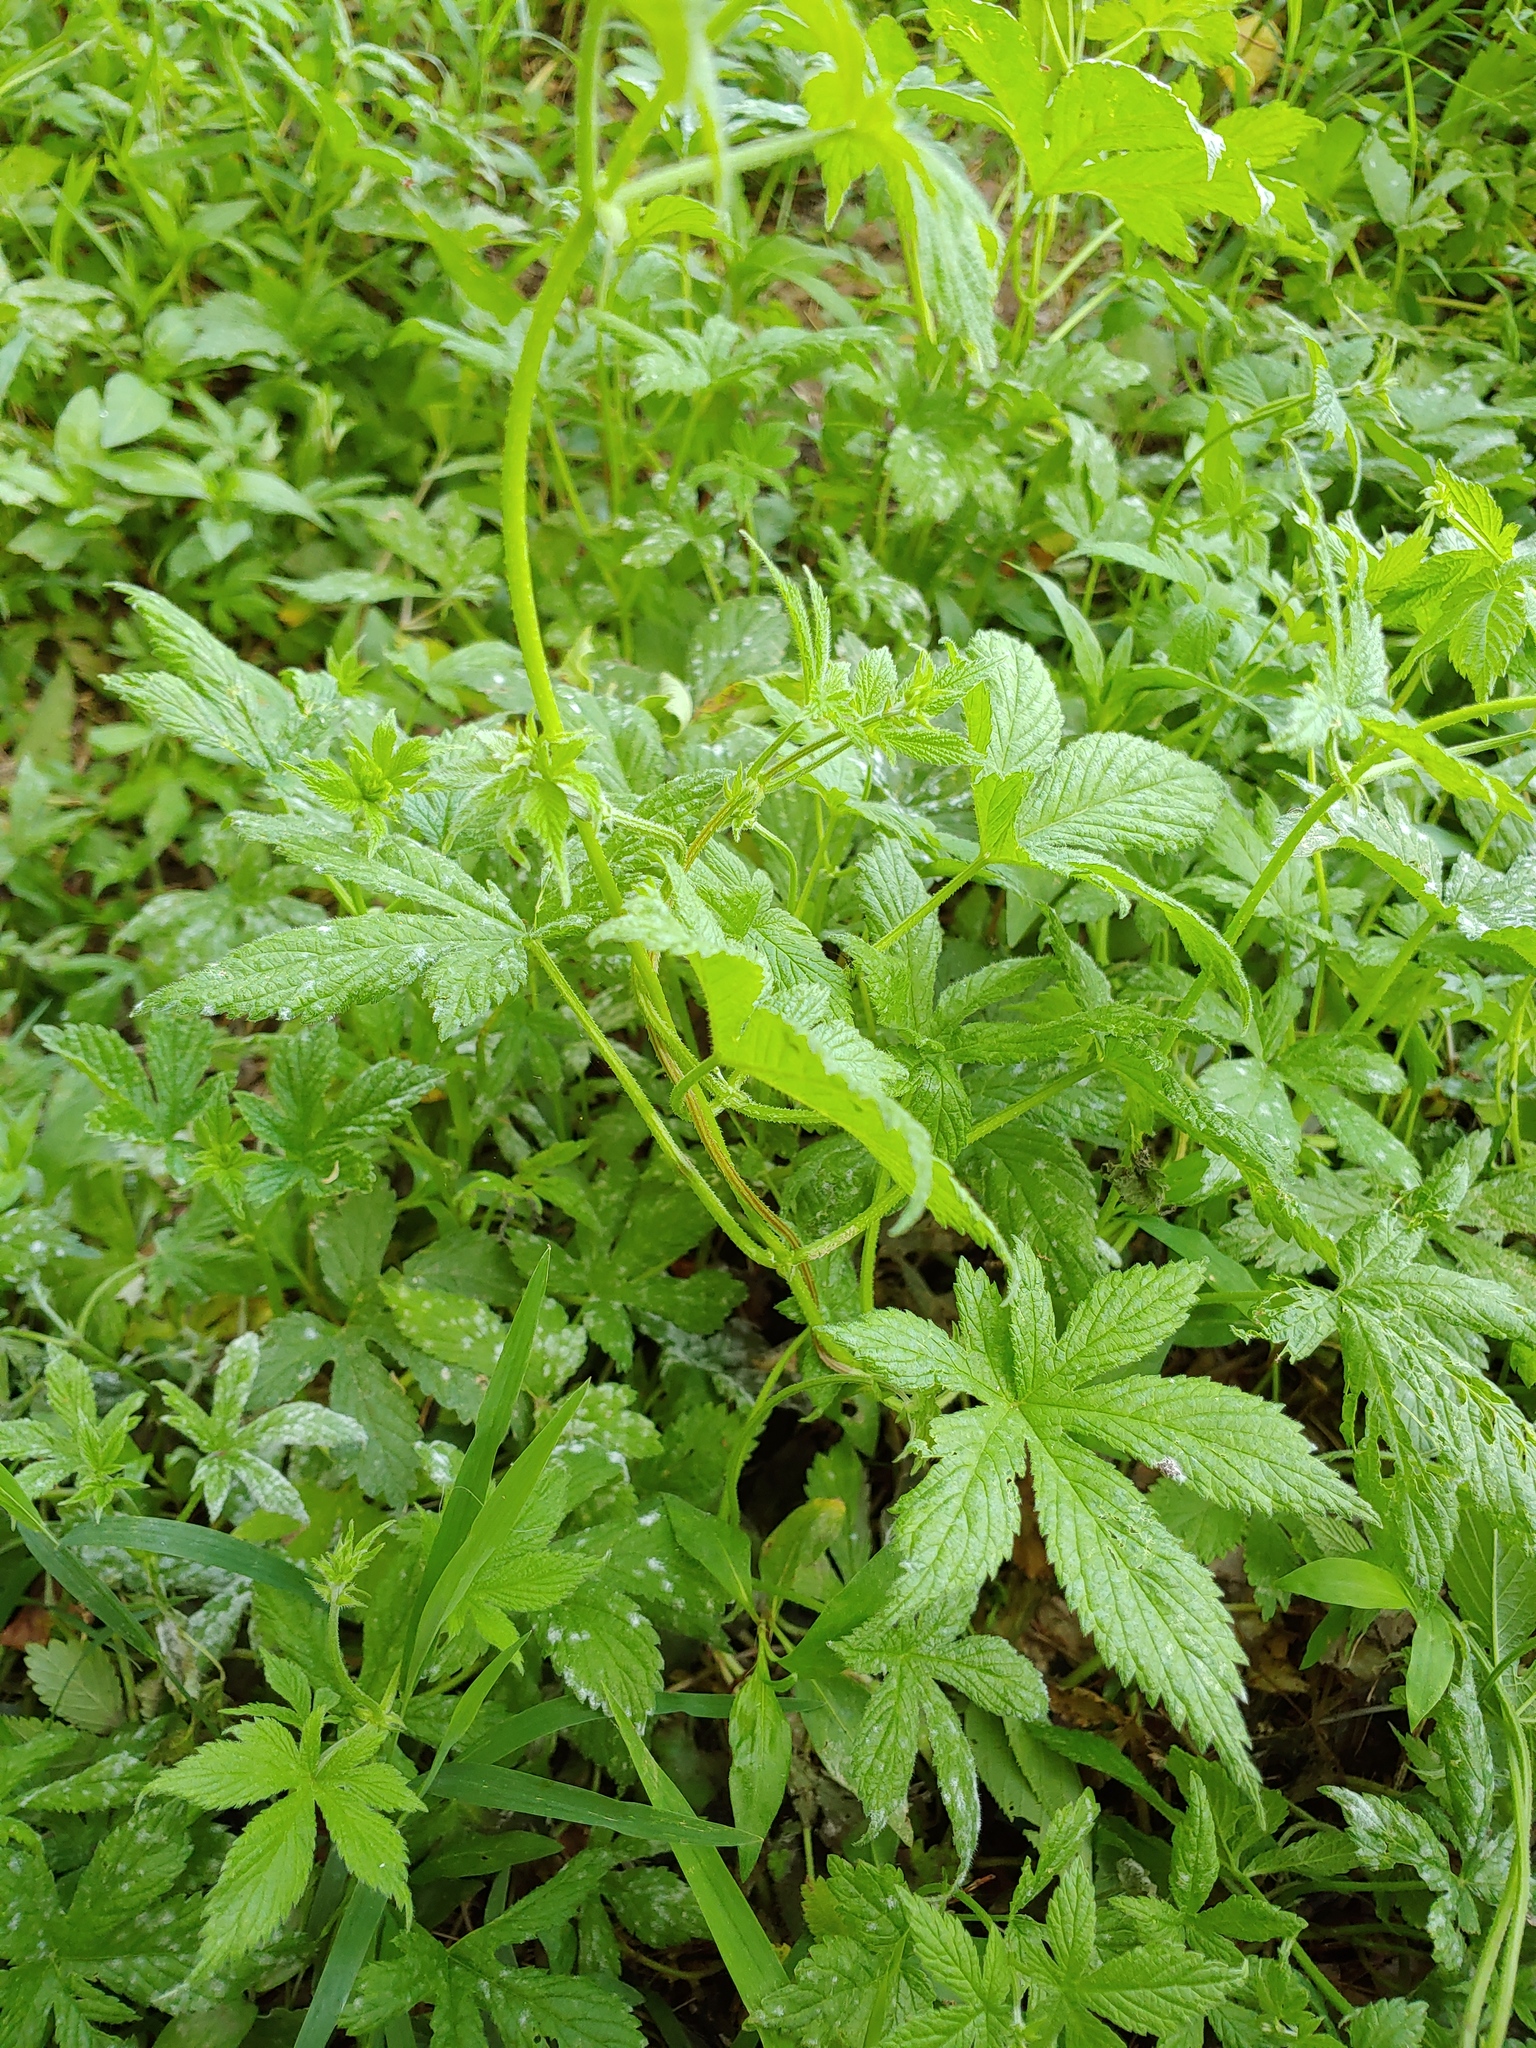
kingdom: Plantae
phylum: Tracheophyta
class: Magnoliopsida
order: Rosales
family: Cannabaceae
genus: Humulus
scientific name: Humulus scandens
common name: Japanese hop
